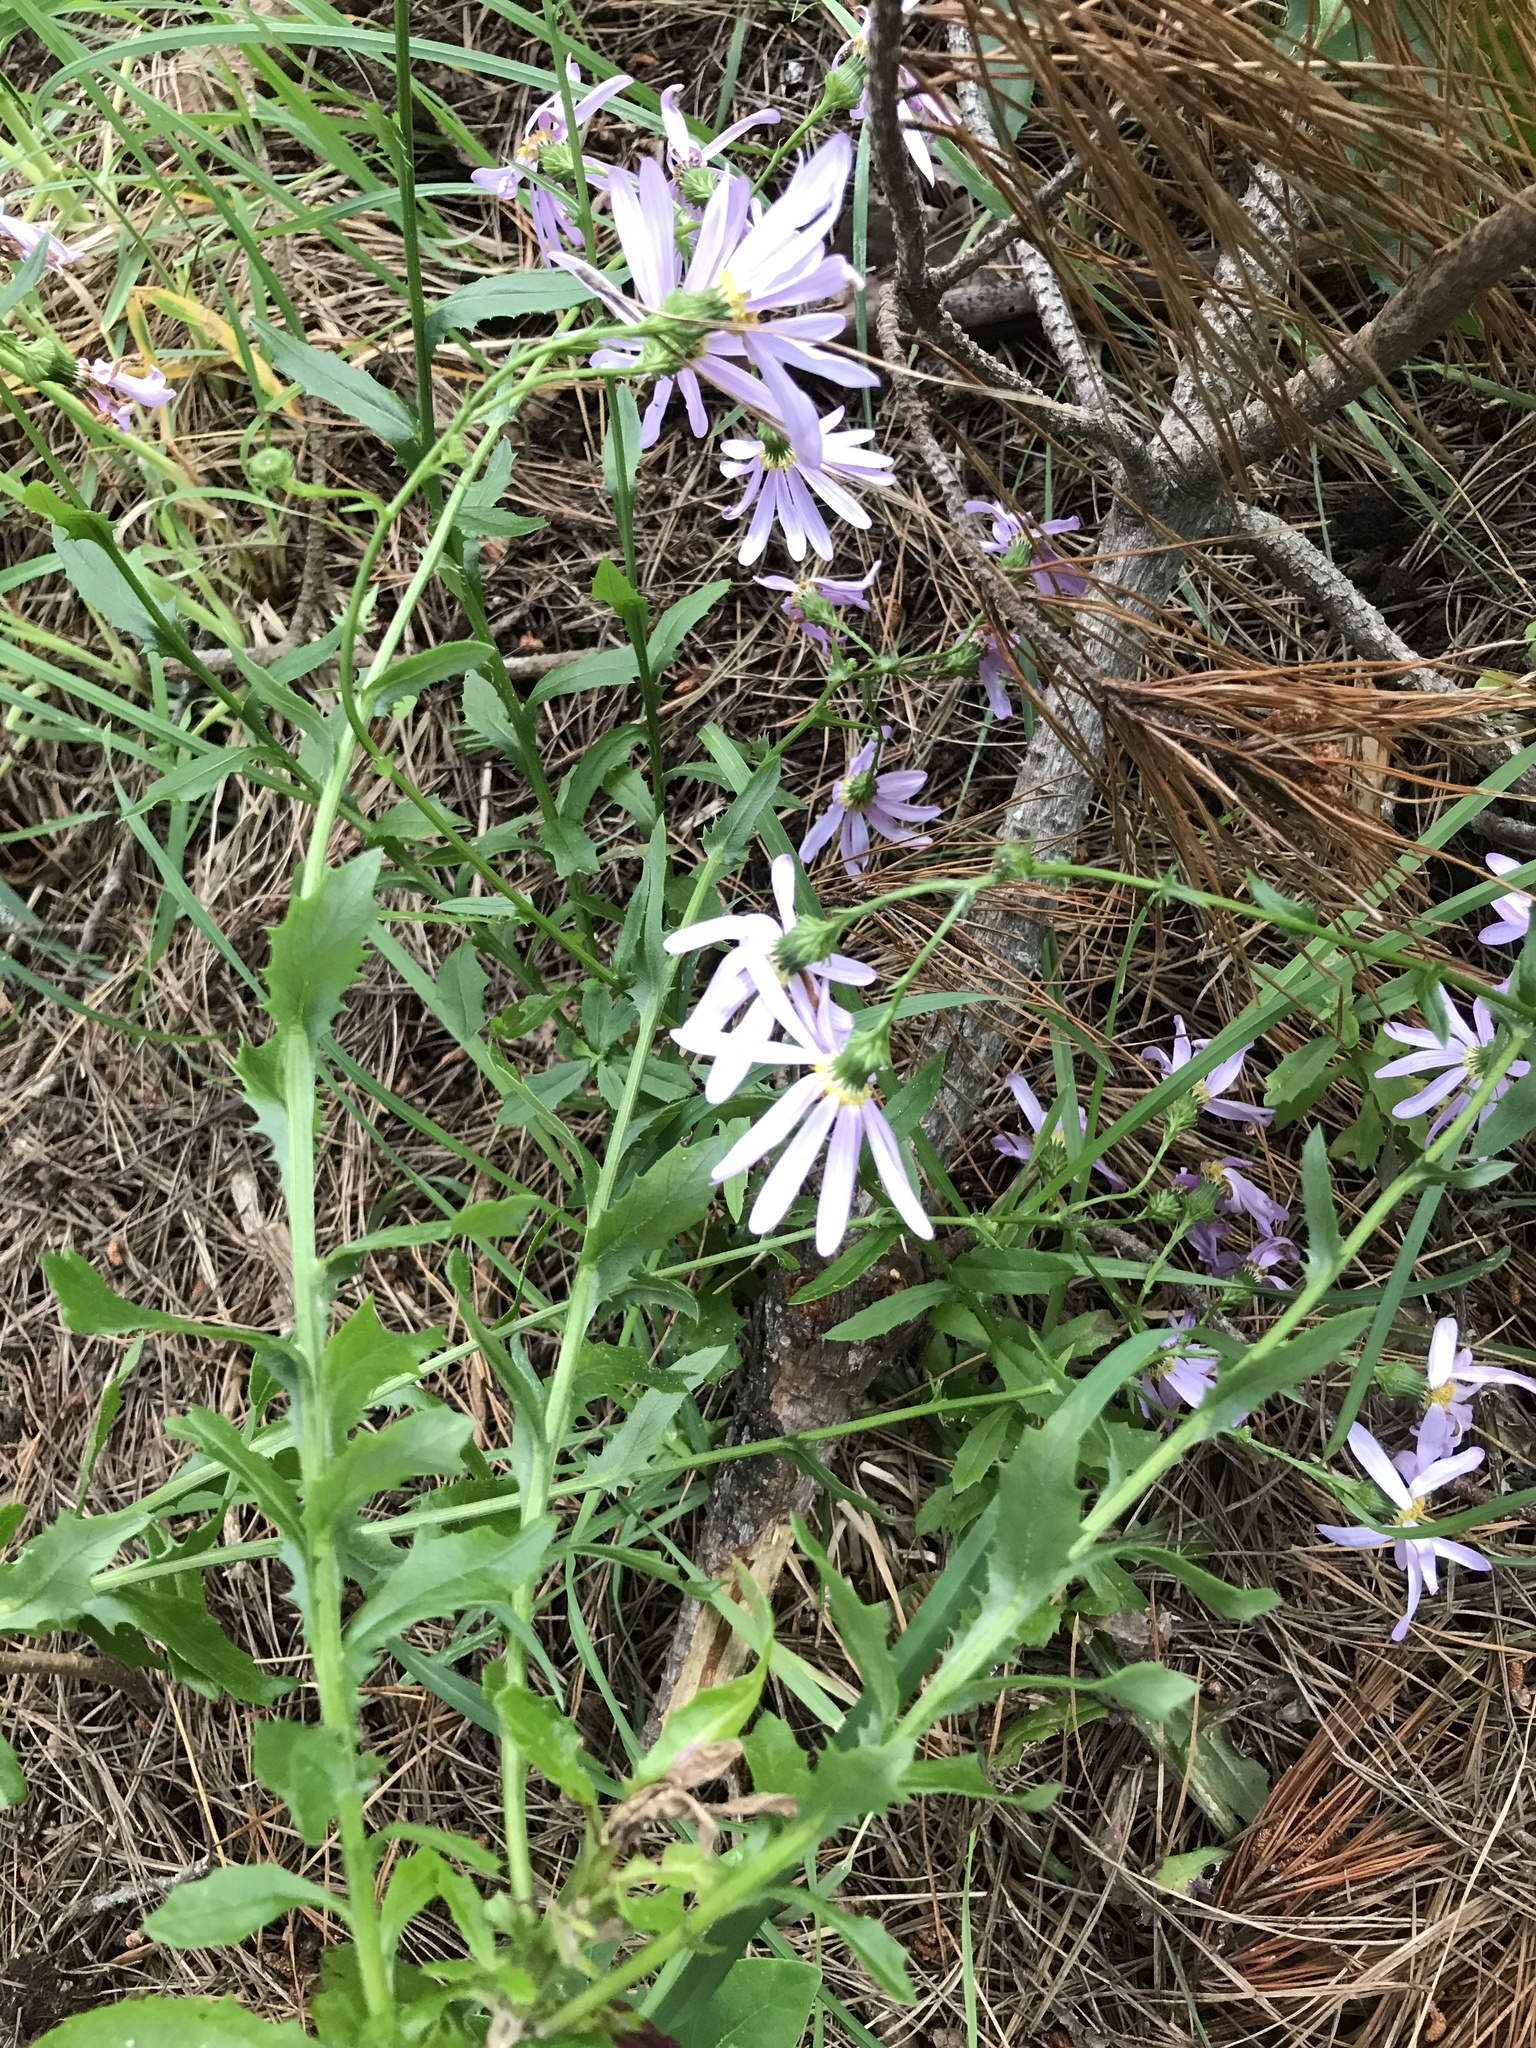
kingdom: Plantae
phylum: Tracheophyta
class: Magnoliopsida
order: Asterales
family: Asteraceae
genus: Senecio
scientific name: Senecio glastifolius
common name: Woad-leaved ragwort
